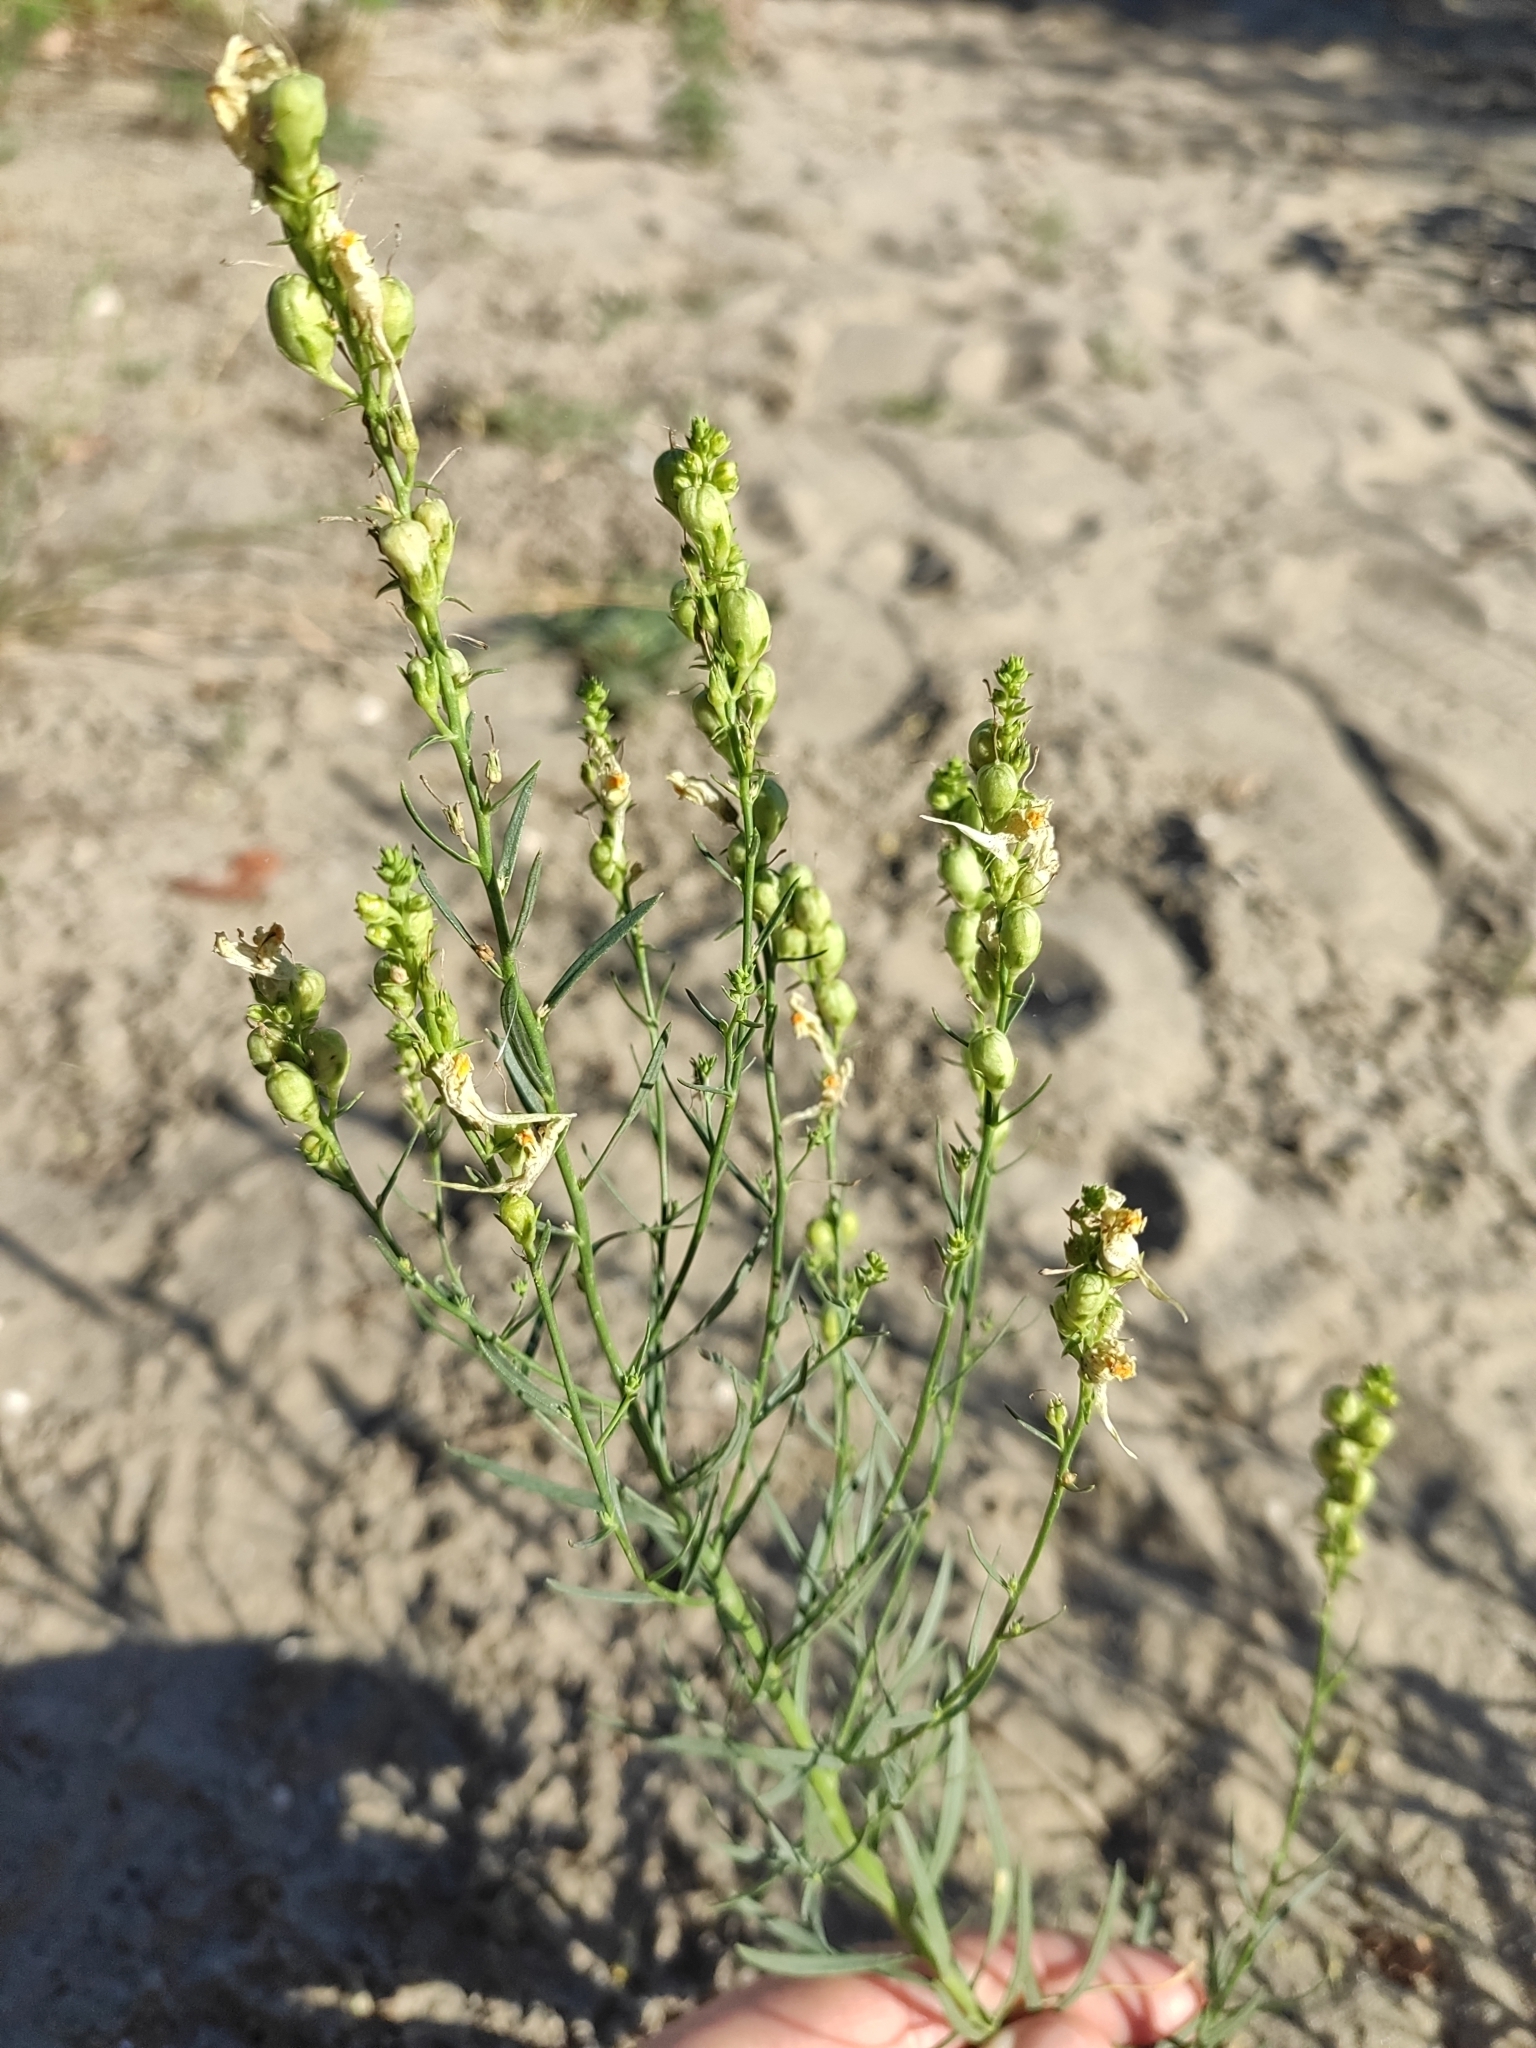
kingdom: Plantae
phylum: Tracheophyta
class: Magnoliopsida
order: Lamiales
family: Plantaginaceae
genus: Linaria
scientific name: Linaria biebersteinii
